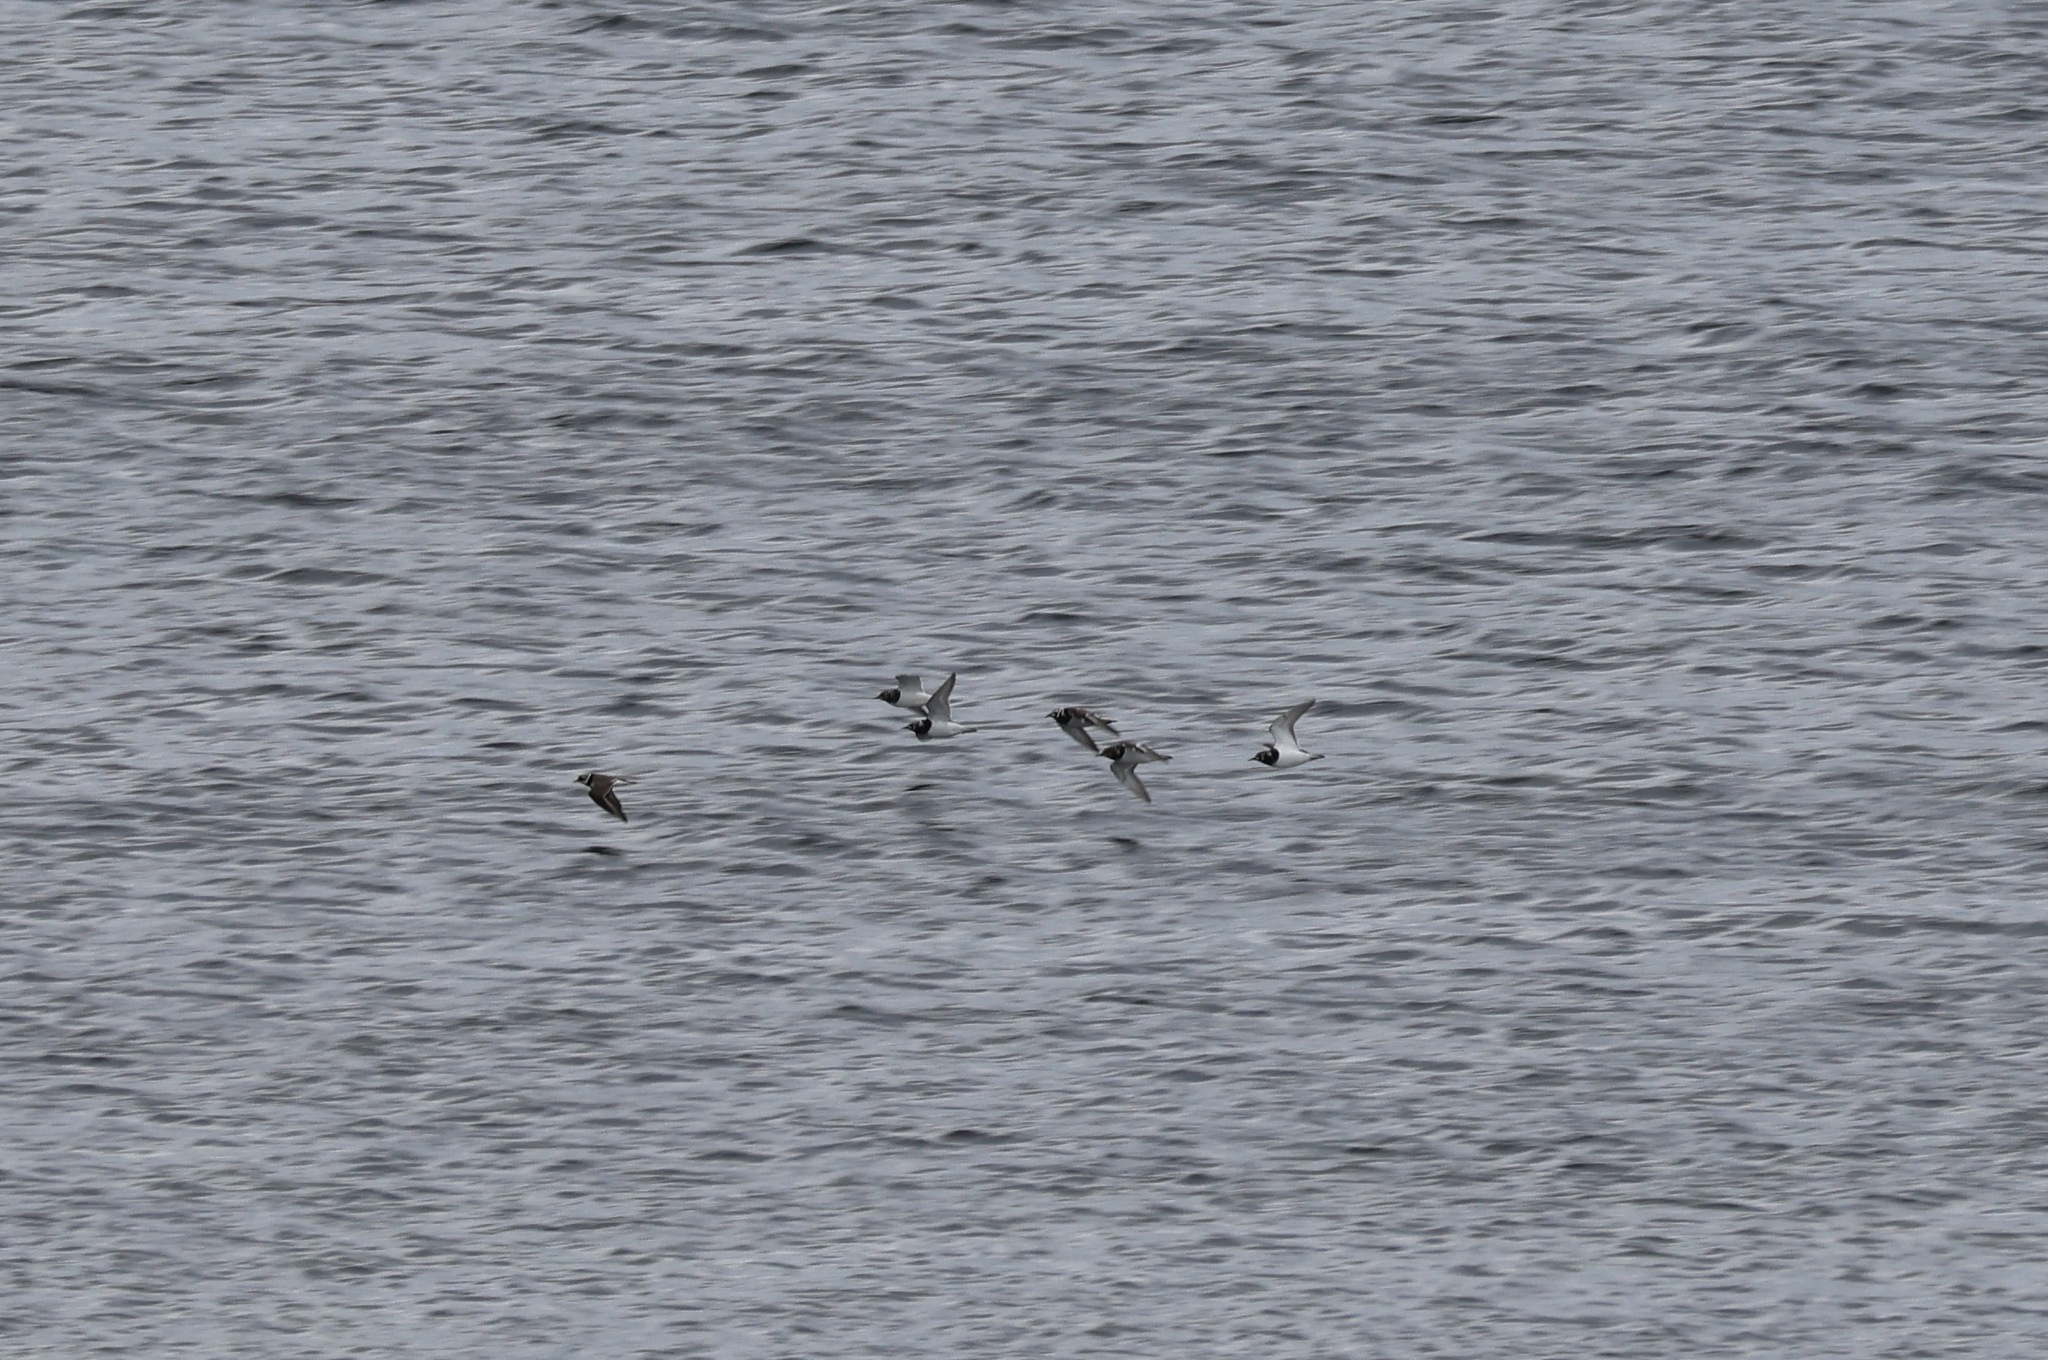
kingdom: Animalia
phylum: Chordata
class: Aves
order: Charadriiformes
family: Scolopacidae
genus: Arenaria
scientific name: Arenaria interpres
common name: Ruddy turnstone
